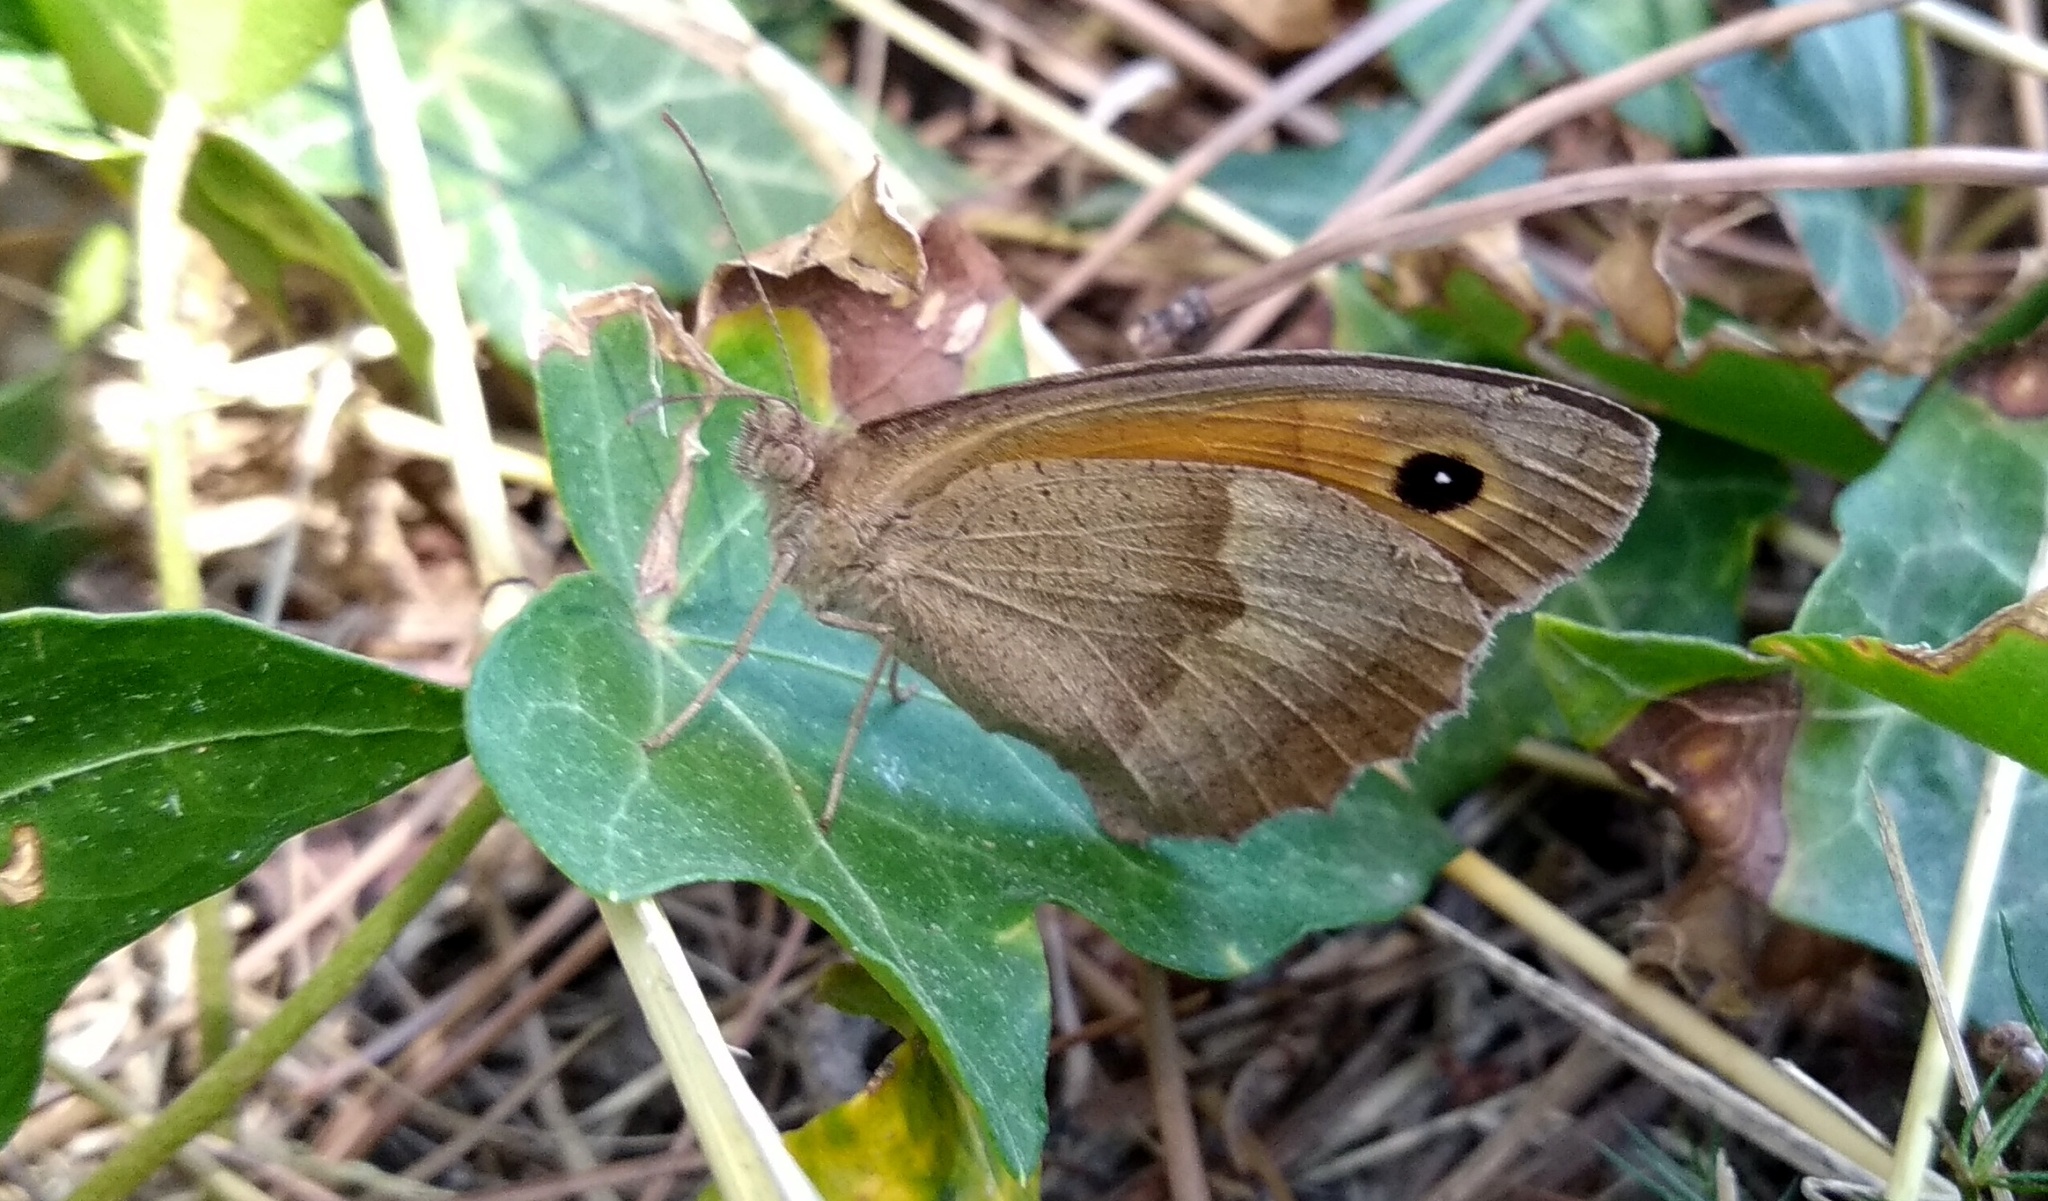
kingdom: Animalia
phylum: Arthropoda
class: Insecta
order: Lepidoptera
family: Nymphalidae
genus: Maniola
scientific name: Maniola jurtina
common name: Meadow brown
